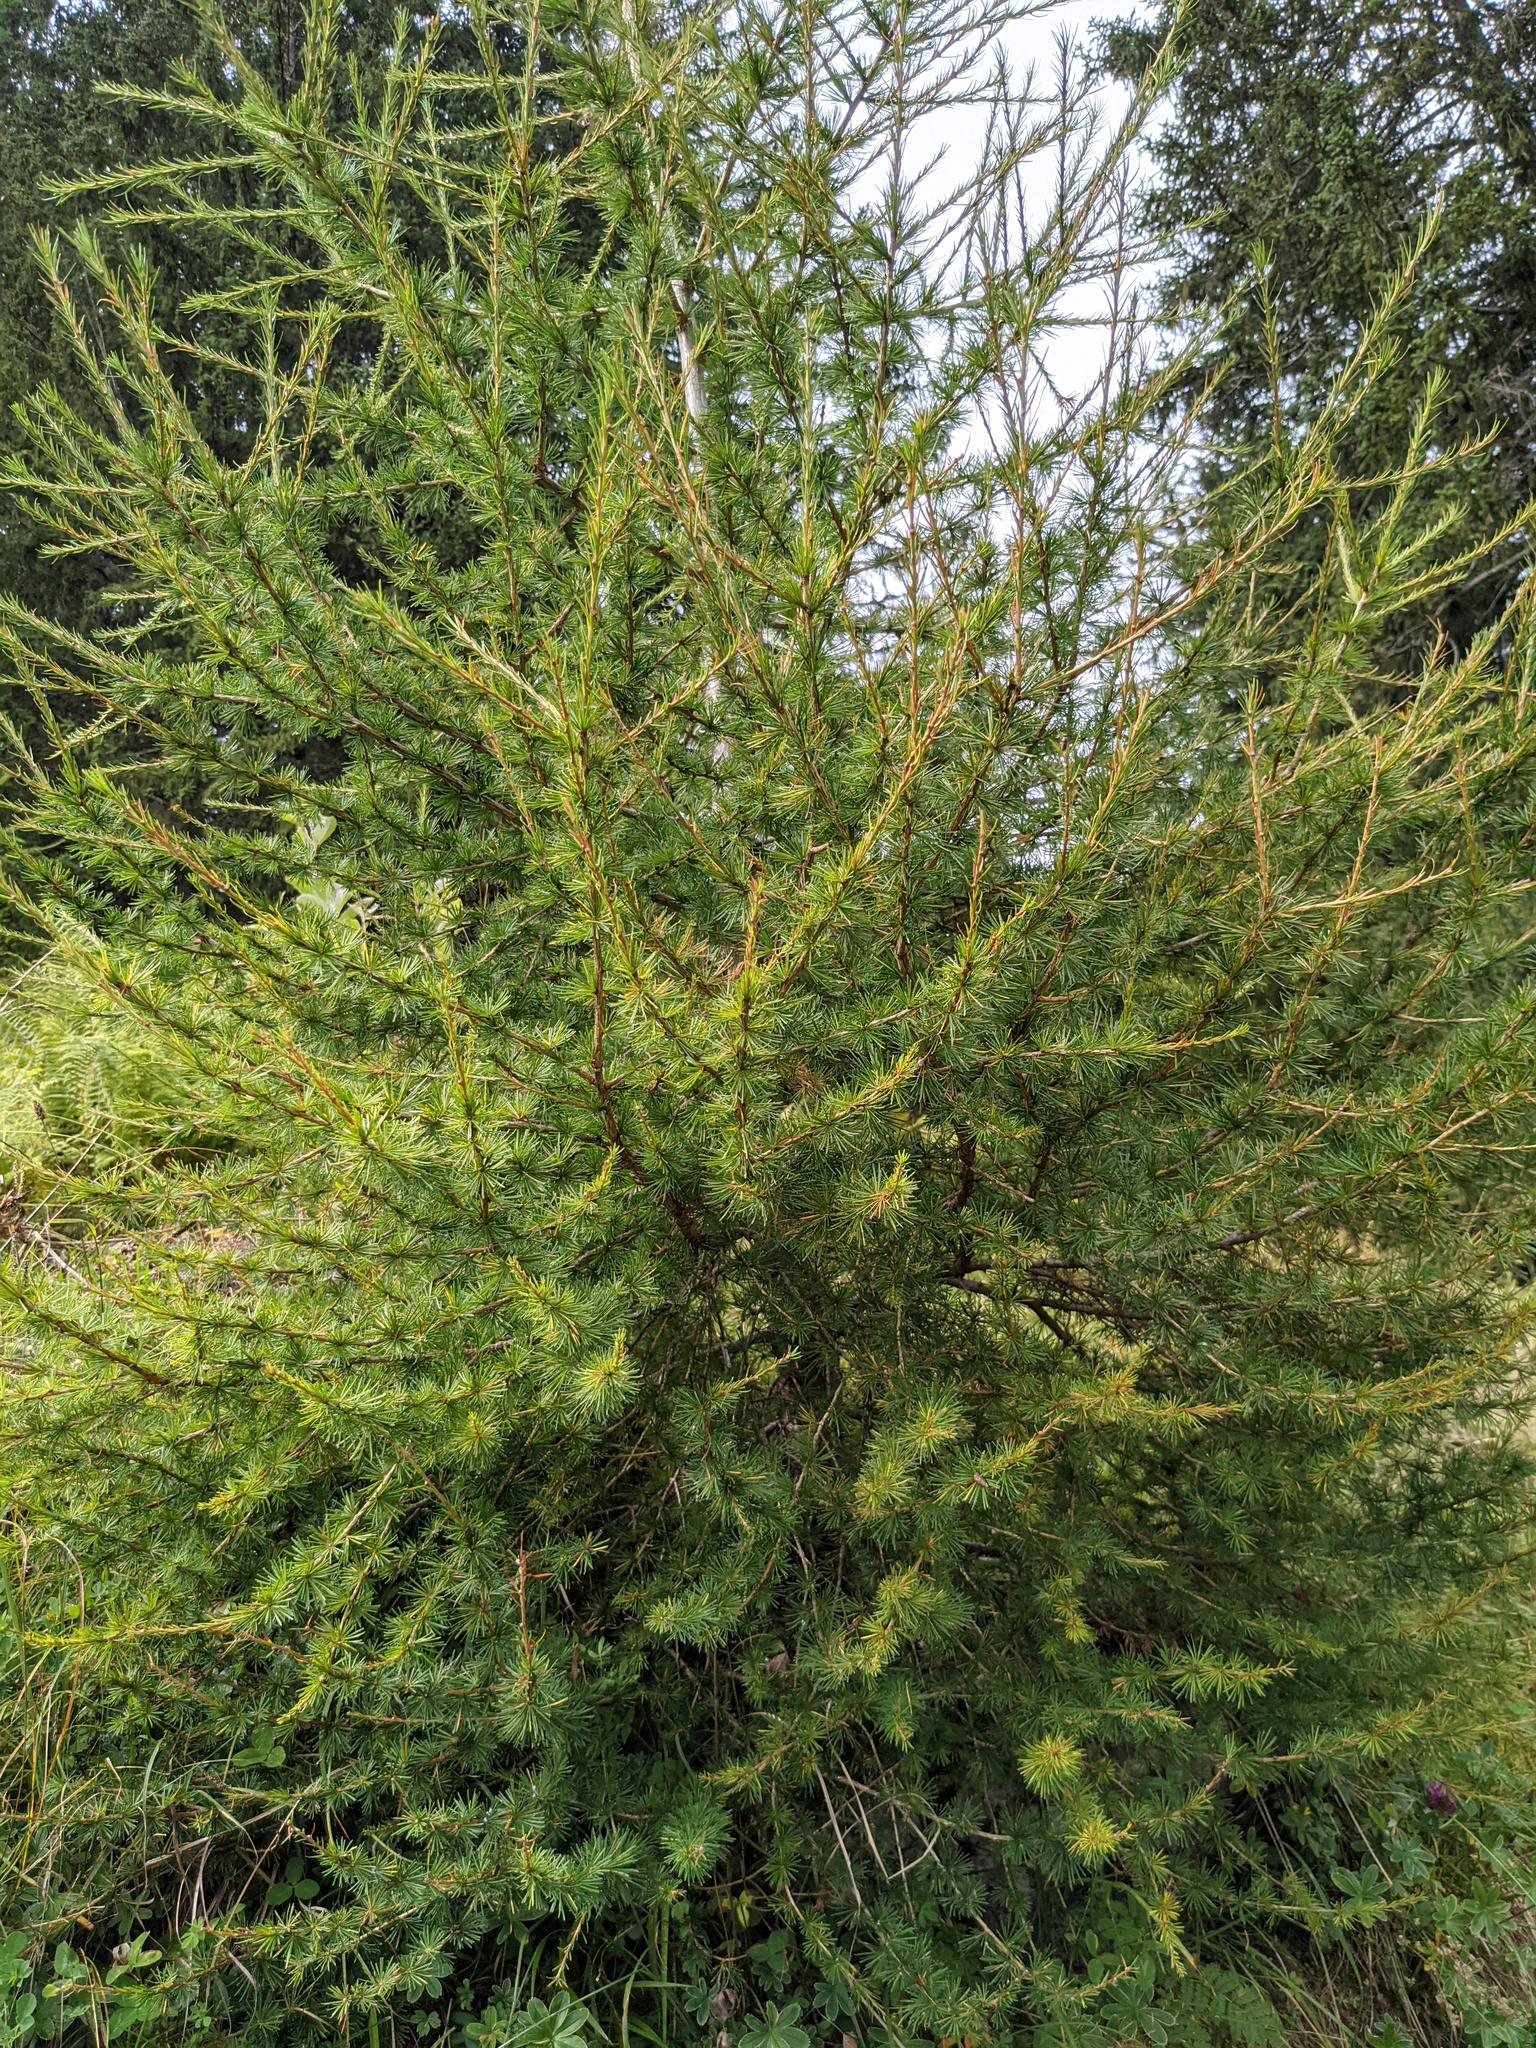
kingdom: Plantae
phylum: Tracheophyta
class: Pinopsida
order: Pinales
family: Pinaceae
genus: Larix
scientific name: Larix decidua
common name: European larch
